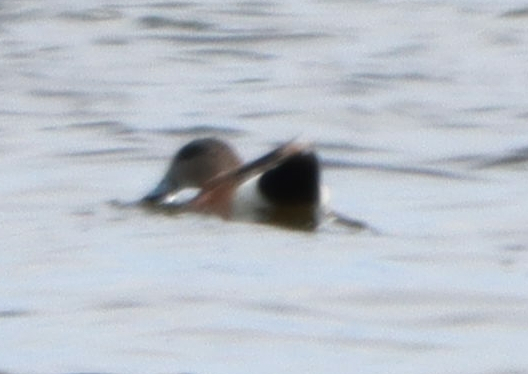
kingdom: Animalia
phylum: Chordata
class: Aves
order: Anseriformes
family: Anatidae
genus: Mareca
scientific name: Mareca americana
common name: American wigeon
